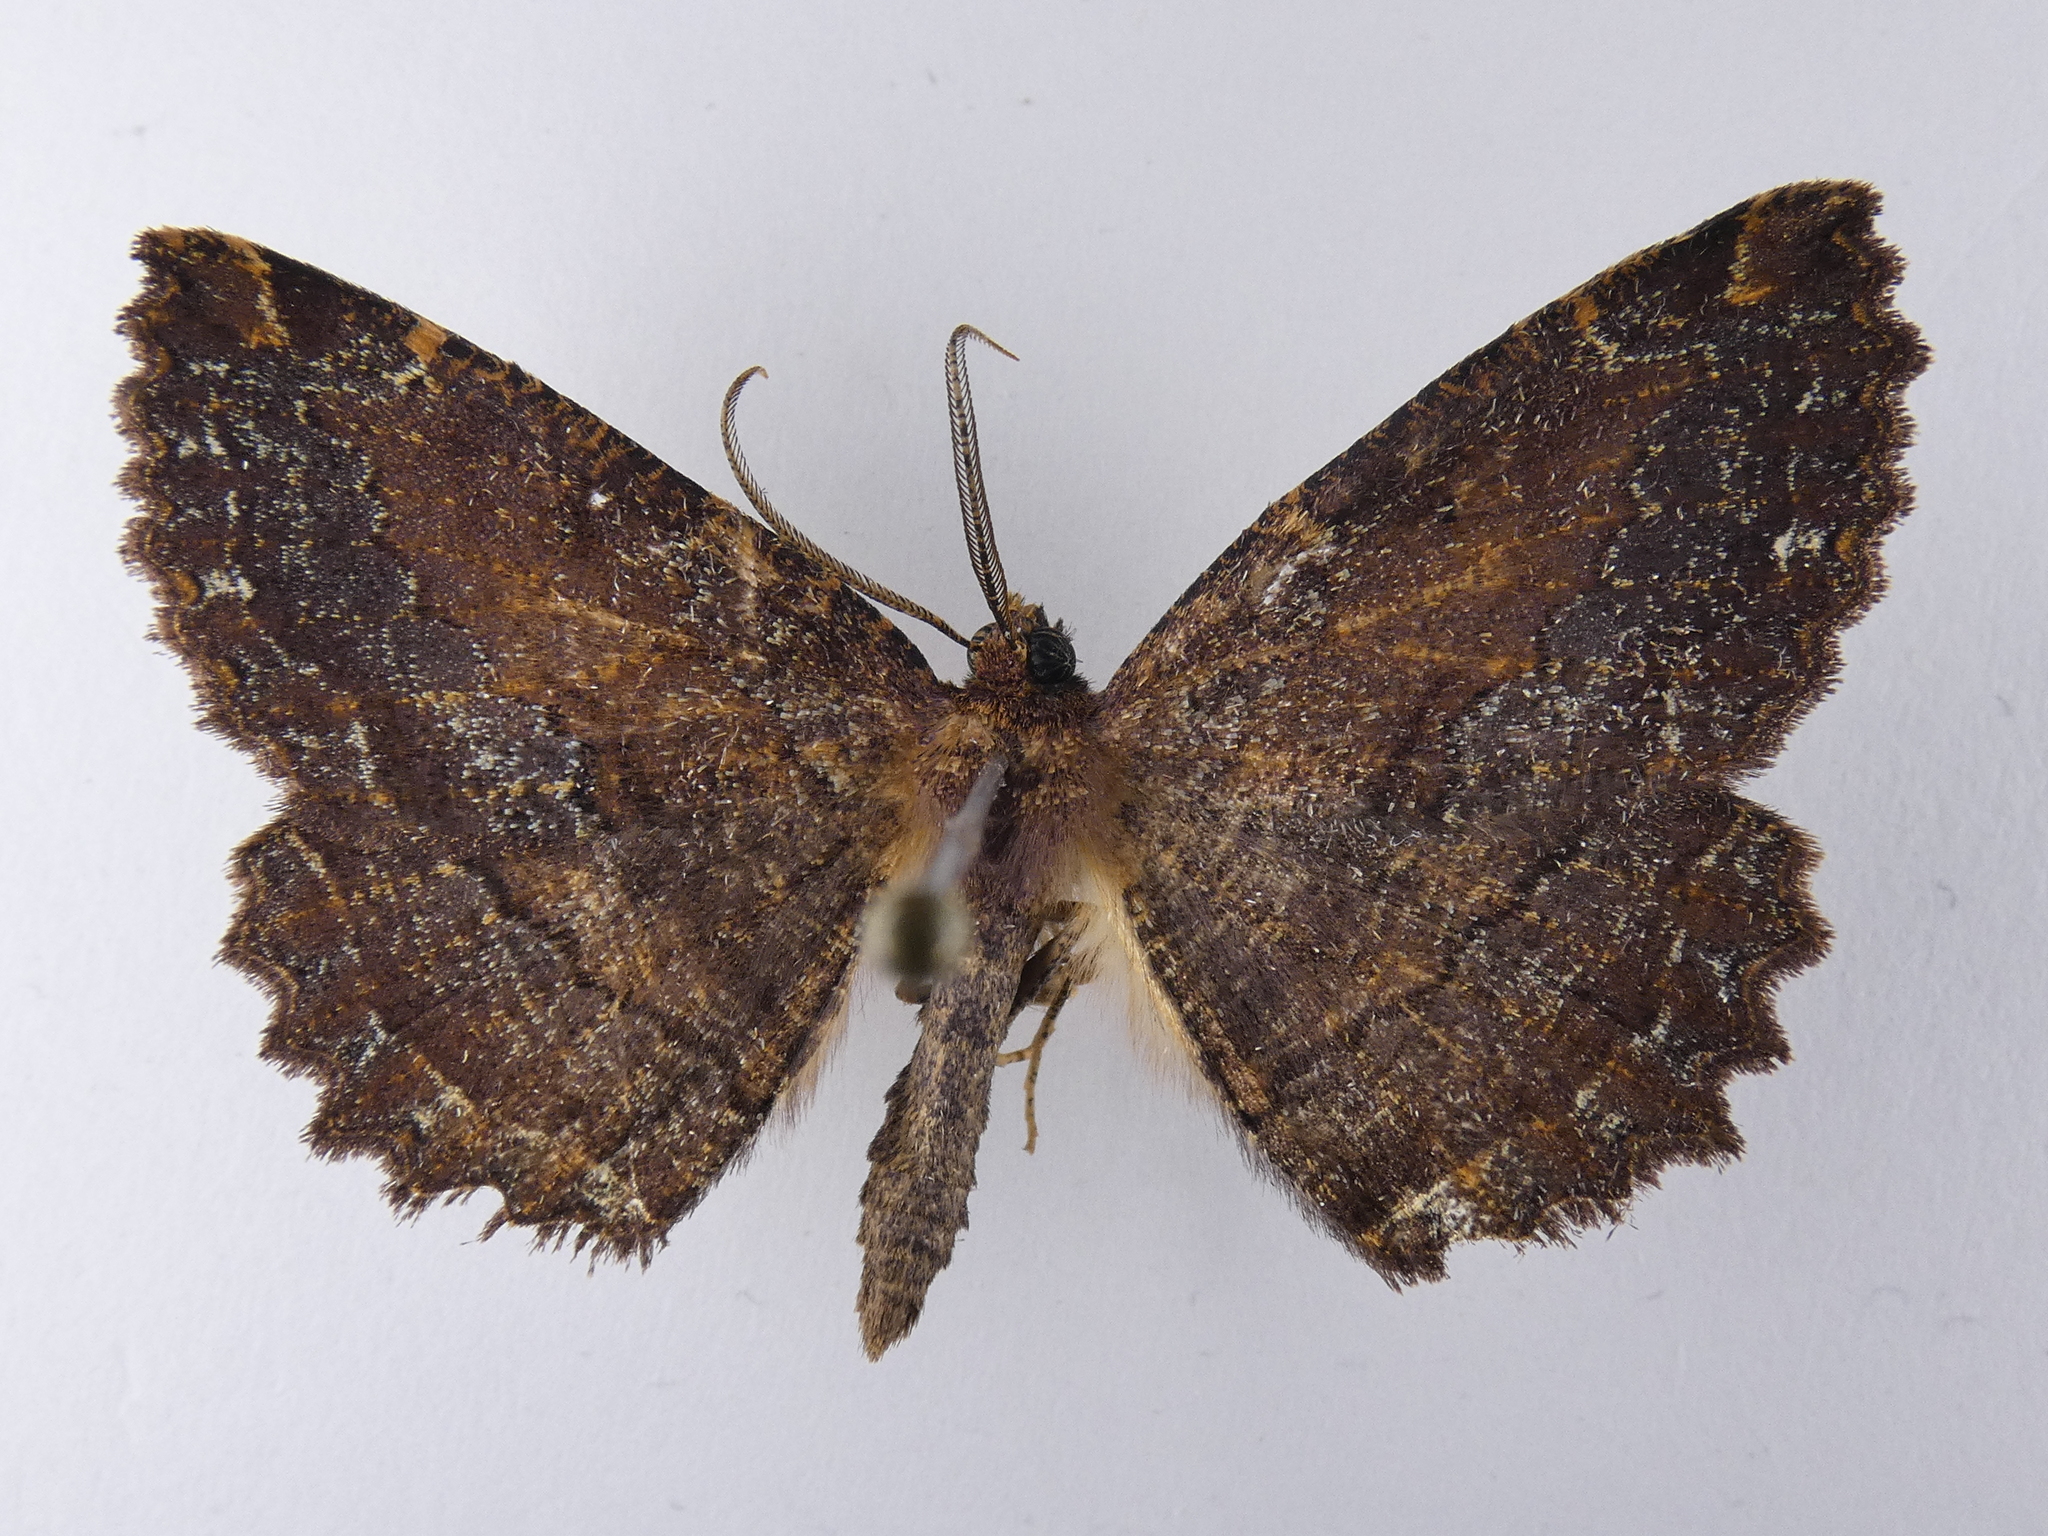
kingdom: Animalia
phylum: Arthropoda
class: Insecta
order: Lepidoptera
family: Geometridae
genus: Gellonia
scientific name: Gellonia dejectaria
